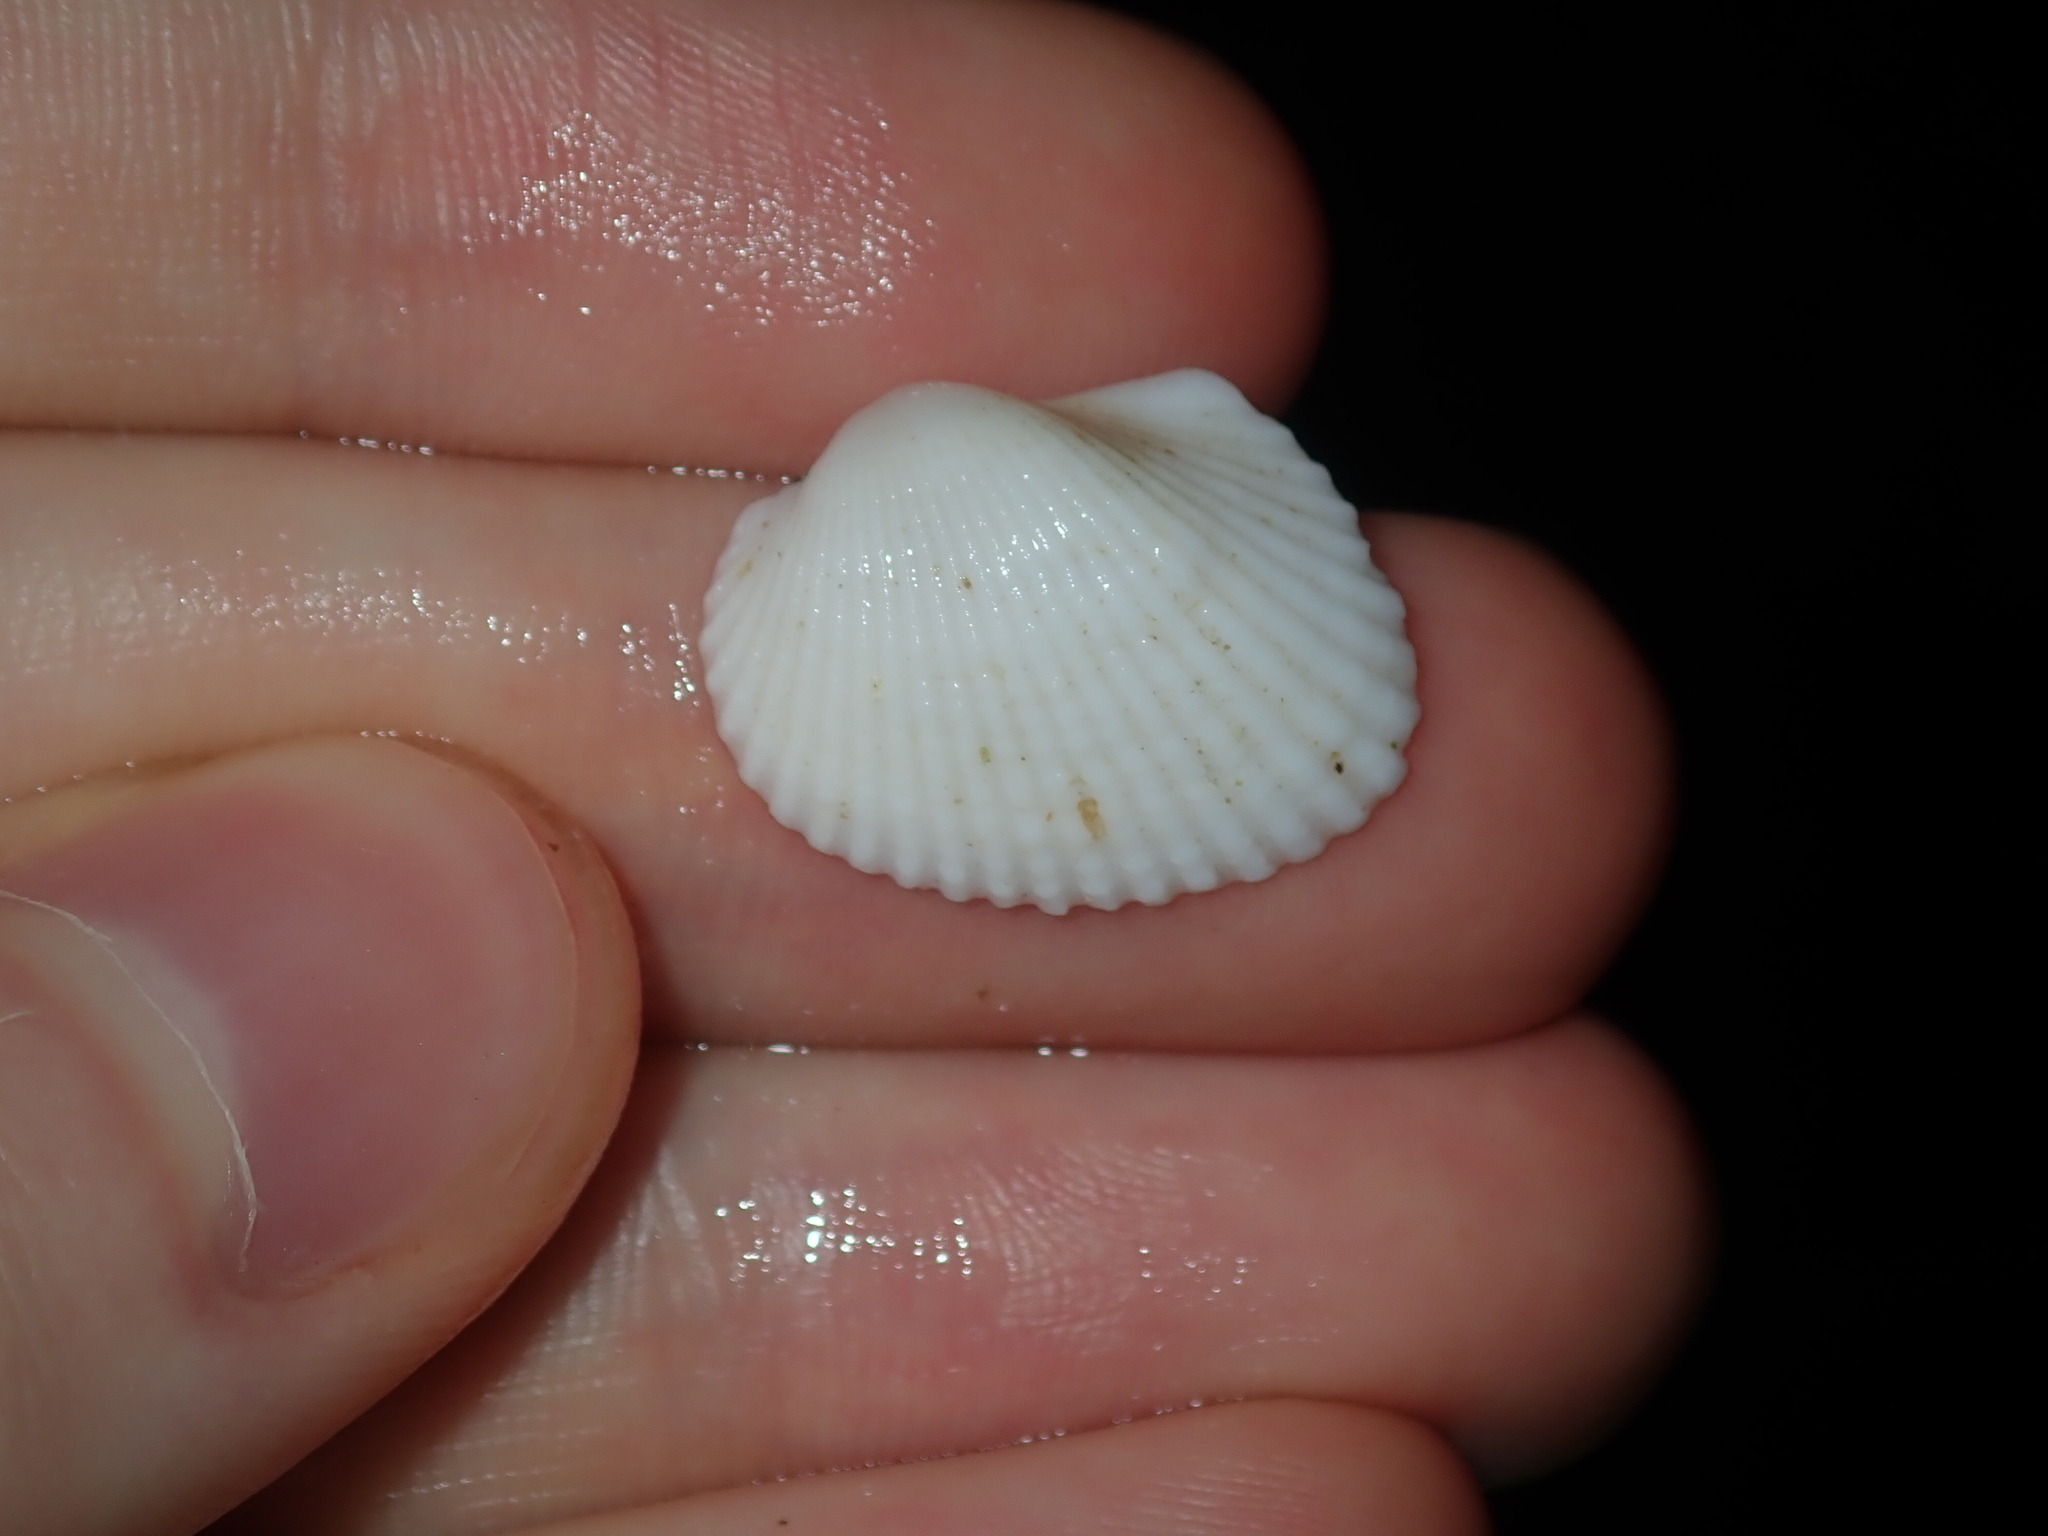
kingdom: Animalia
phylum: Mollusca
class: Bivalvia
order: Arcida
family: Arcidae
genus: Anadara
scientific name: Anadara trapezia
